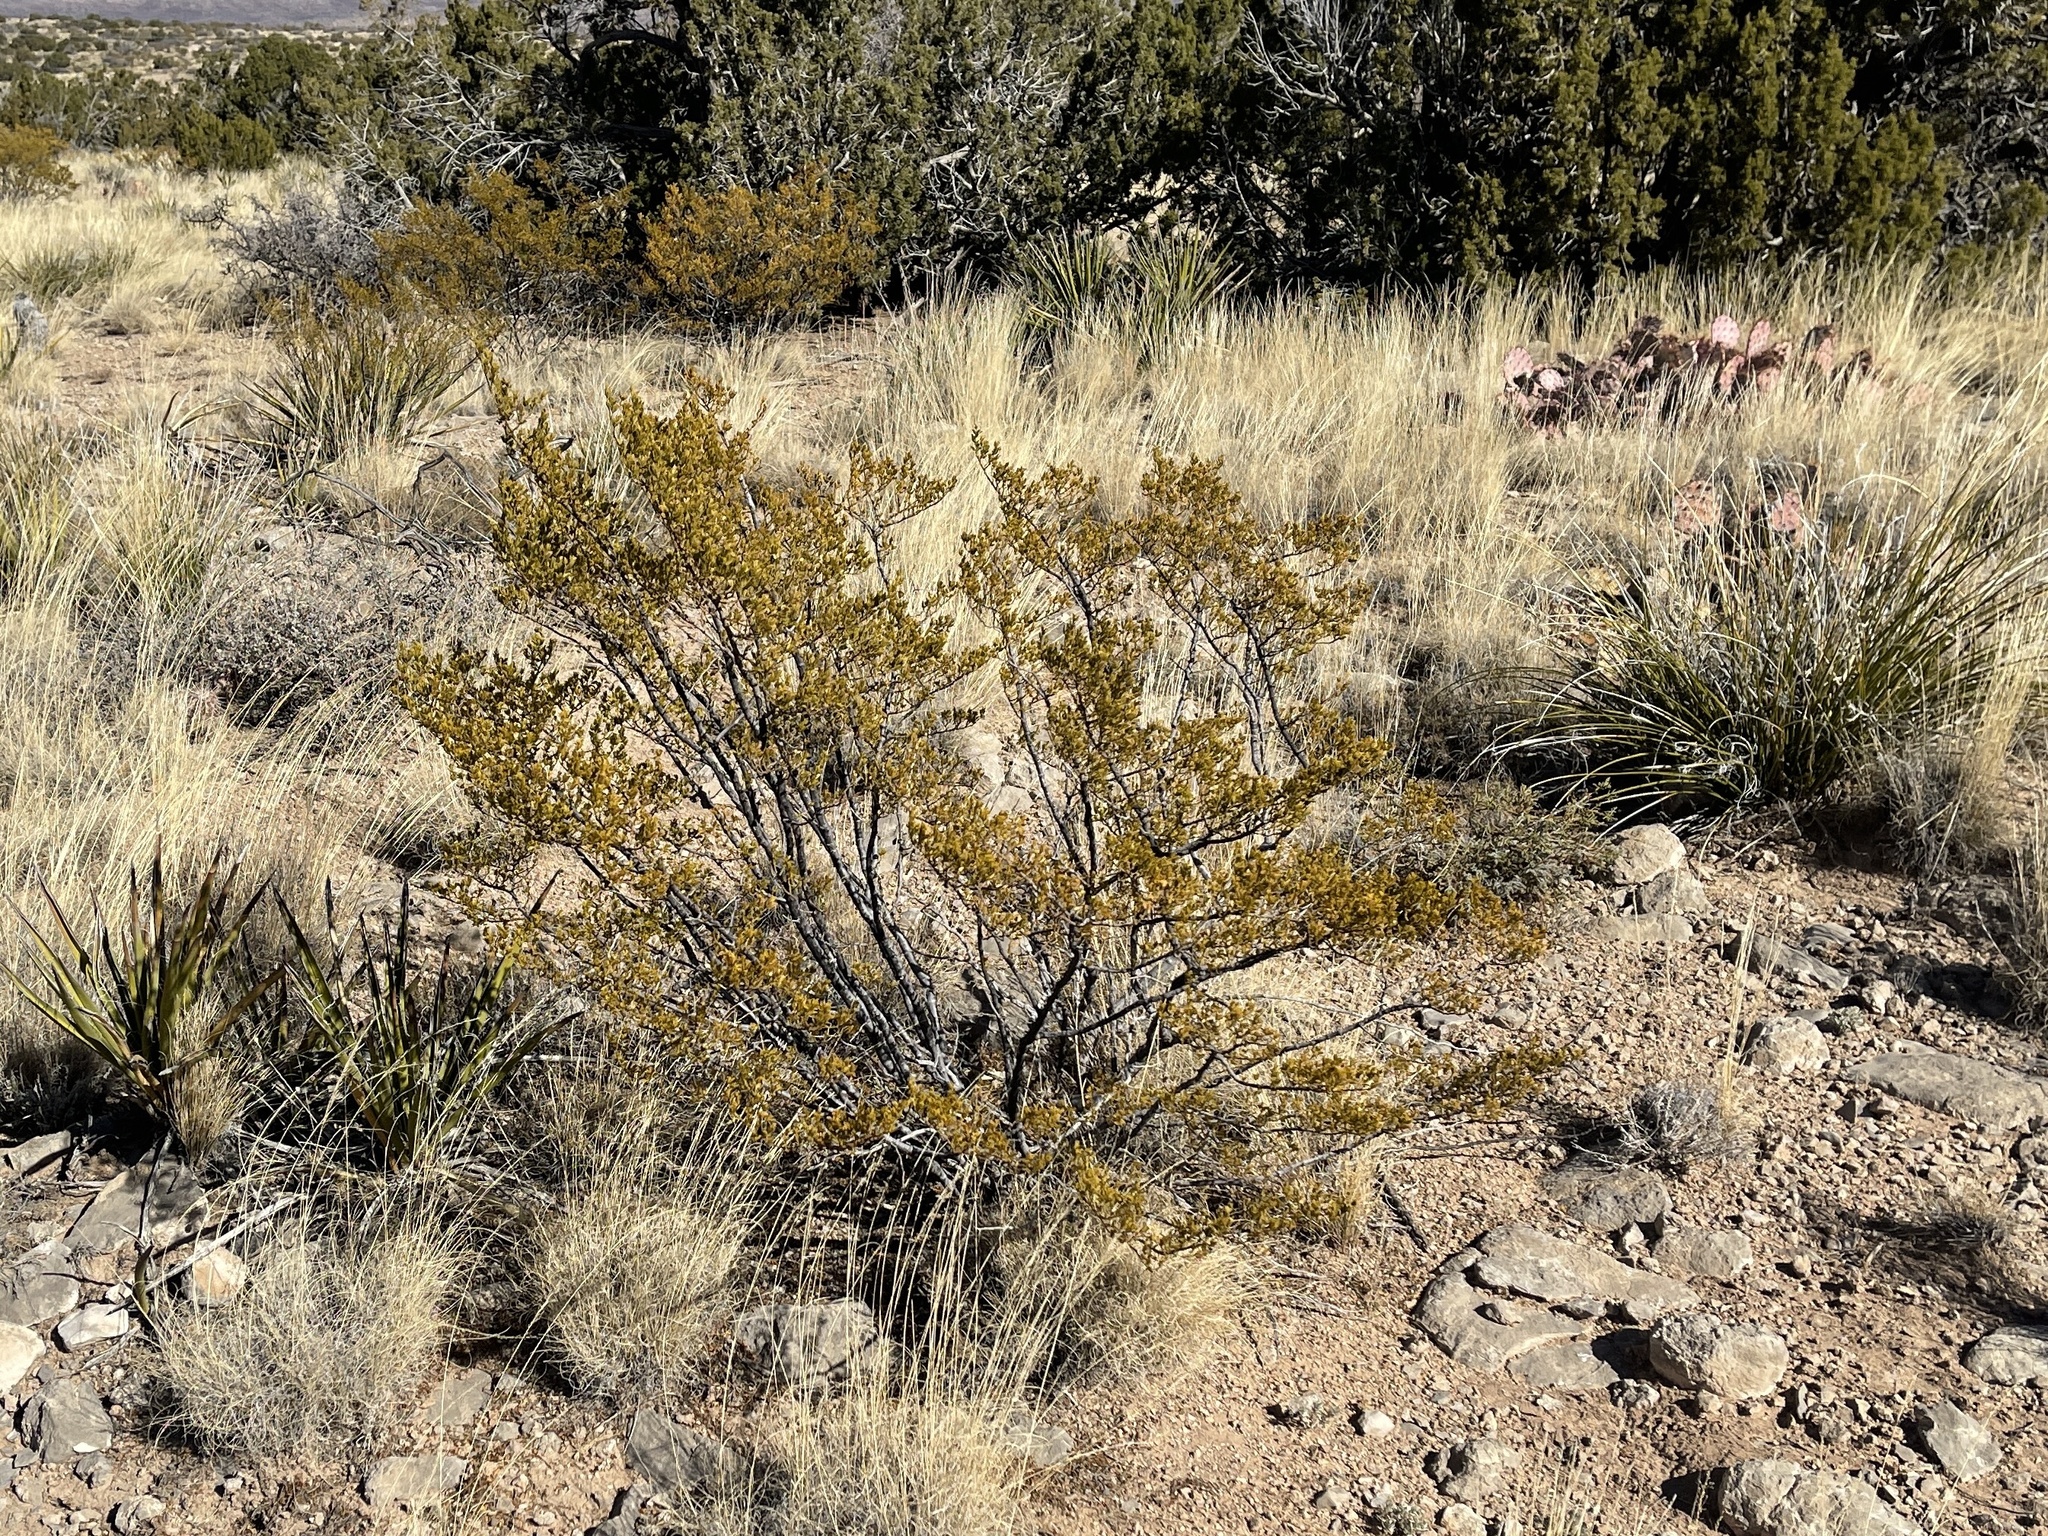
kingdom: Plantae
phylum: Tracheophyta
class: Magnoliopsida
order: Zygophyllales
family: Zygophyllaceae
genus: Larrea
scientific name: Larrea tridentata
